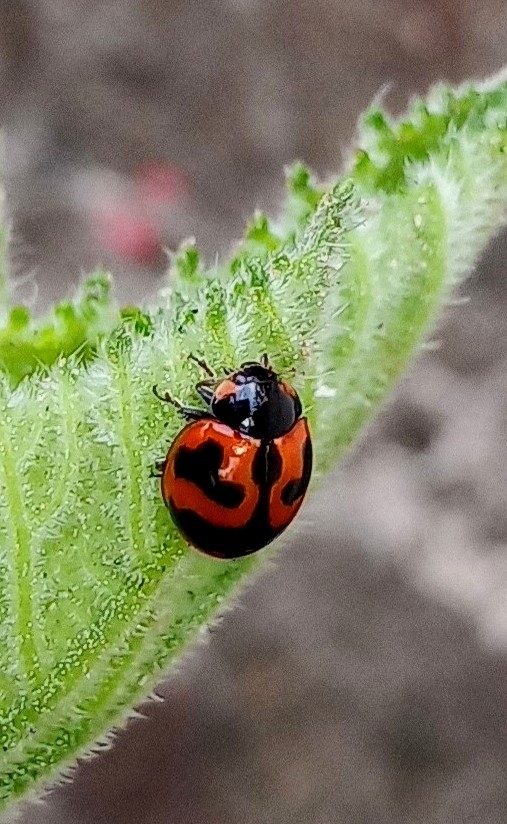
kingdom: Animalia
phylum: Arthropoda
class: Insecta
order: Coleoptera
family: Coccinellidae
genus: Coccinella
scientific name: Coccinella transversalis
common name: Transverse lady beetle
